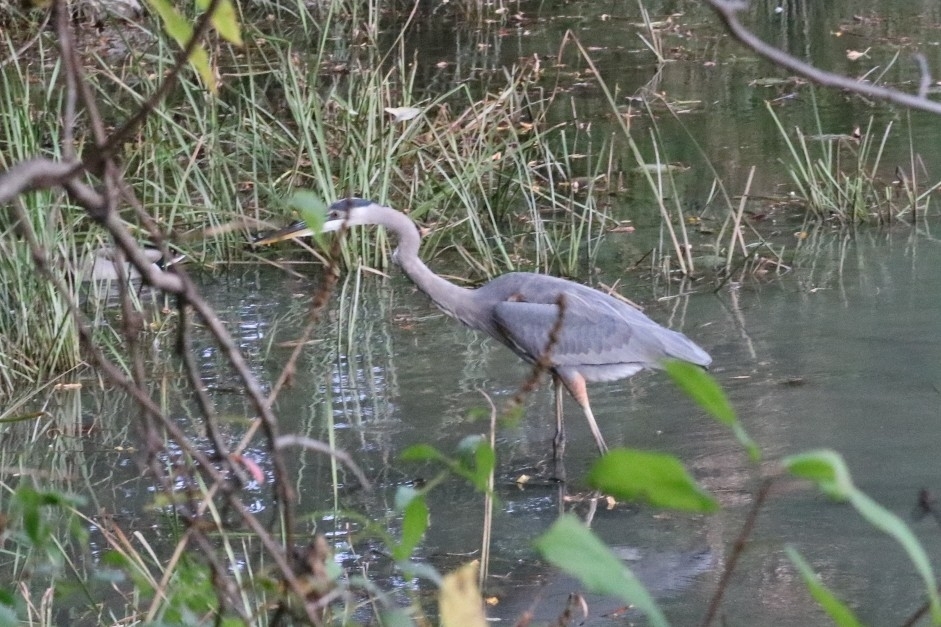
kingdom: Animalia
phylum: Chordata
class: Aves
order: Pelecaniformes
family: Ardeidae
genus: Ardea
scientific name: Ardea herodias
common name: Great blue heron
